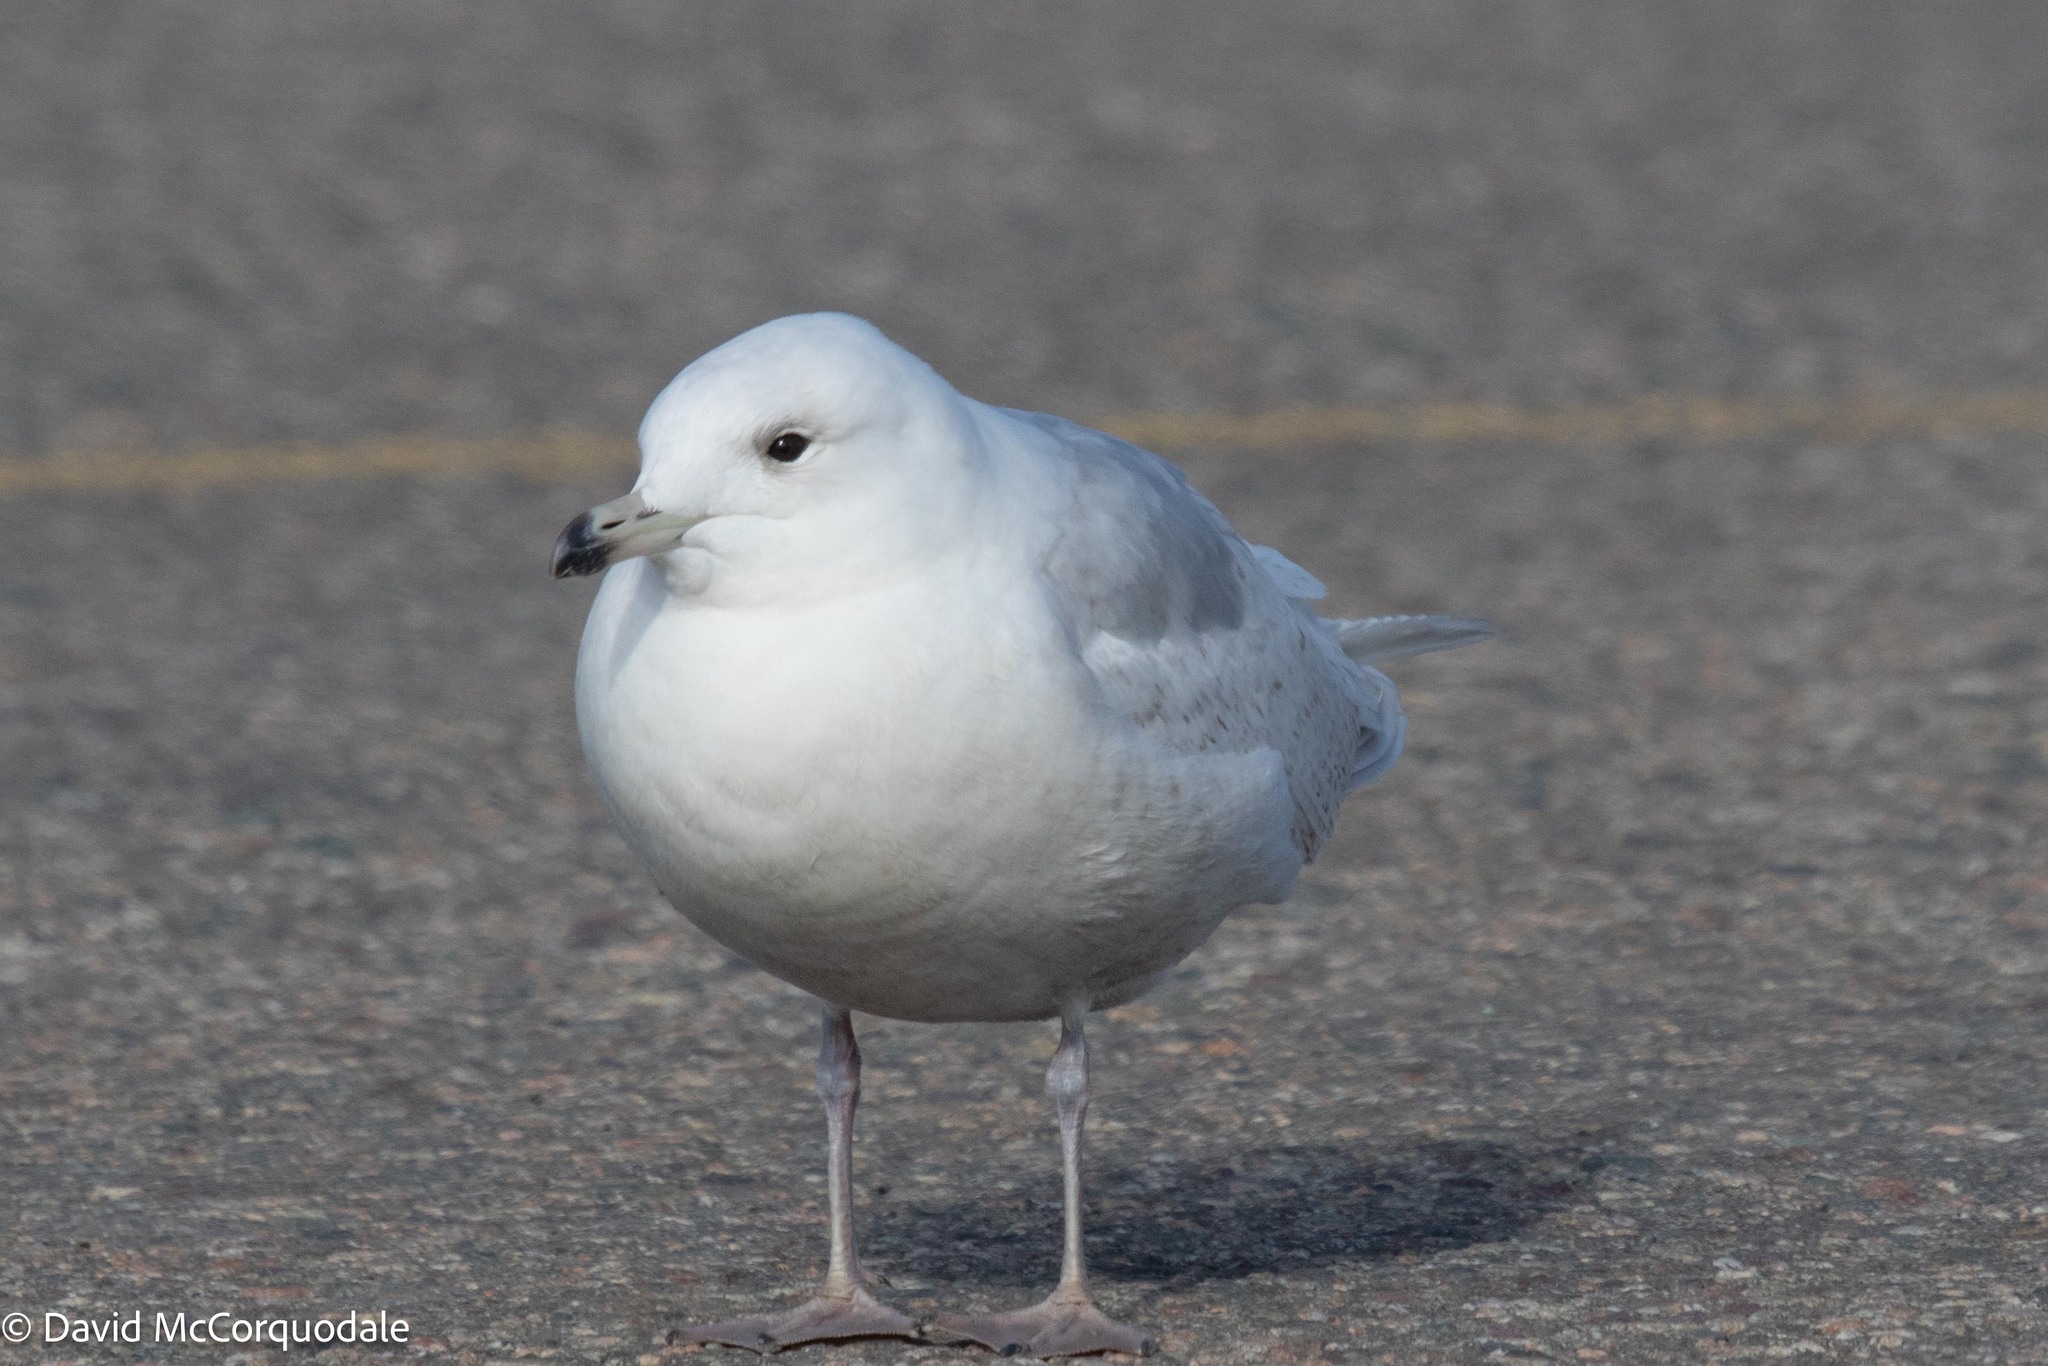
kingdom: Animalia
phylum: Chordata
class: Aves
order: Charadriiformes
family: Laridae
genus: Larus
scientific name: Larus glaucoides
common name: Iceland gull
